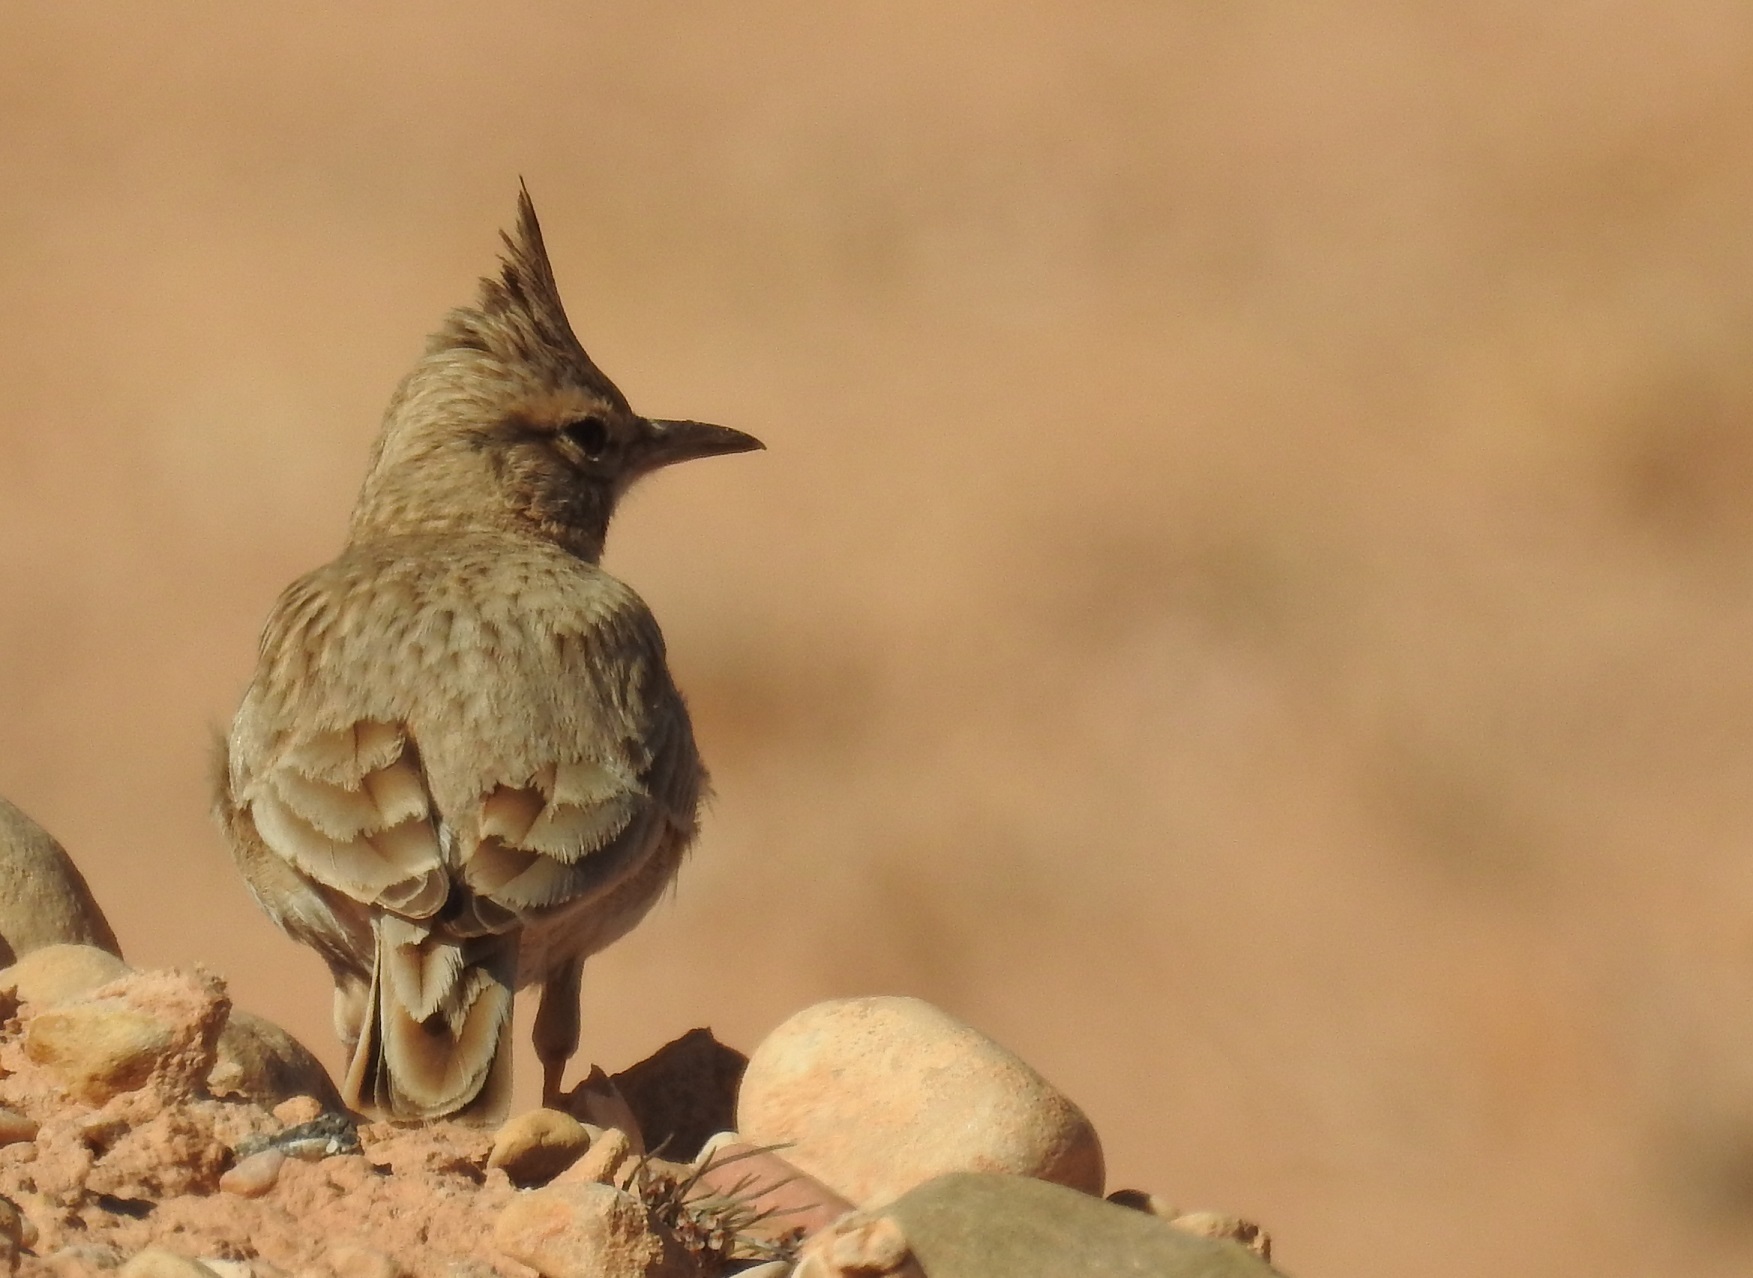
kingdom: Animalia
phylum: Chordata
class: Aves
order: Passeriformes
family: Alaudidae
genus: Galerida
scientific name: Galerida cristata
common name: Crested lark
